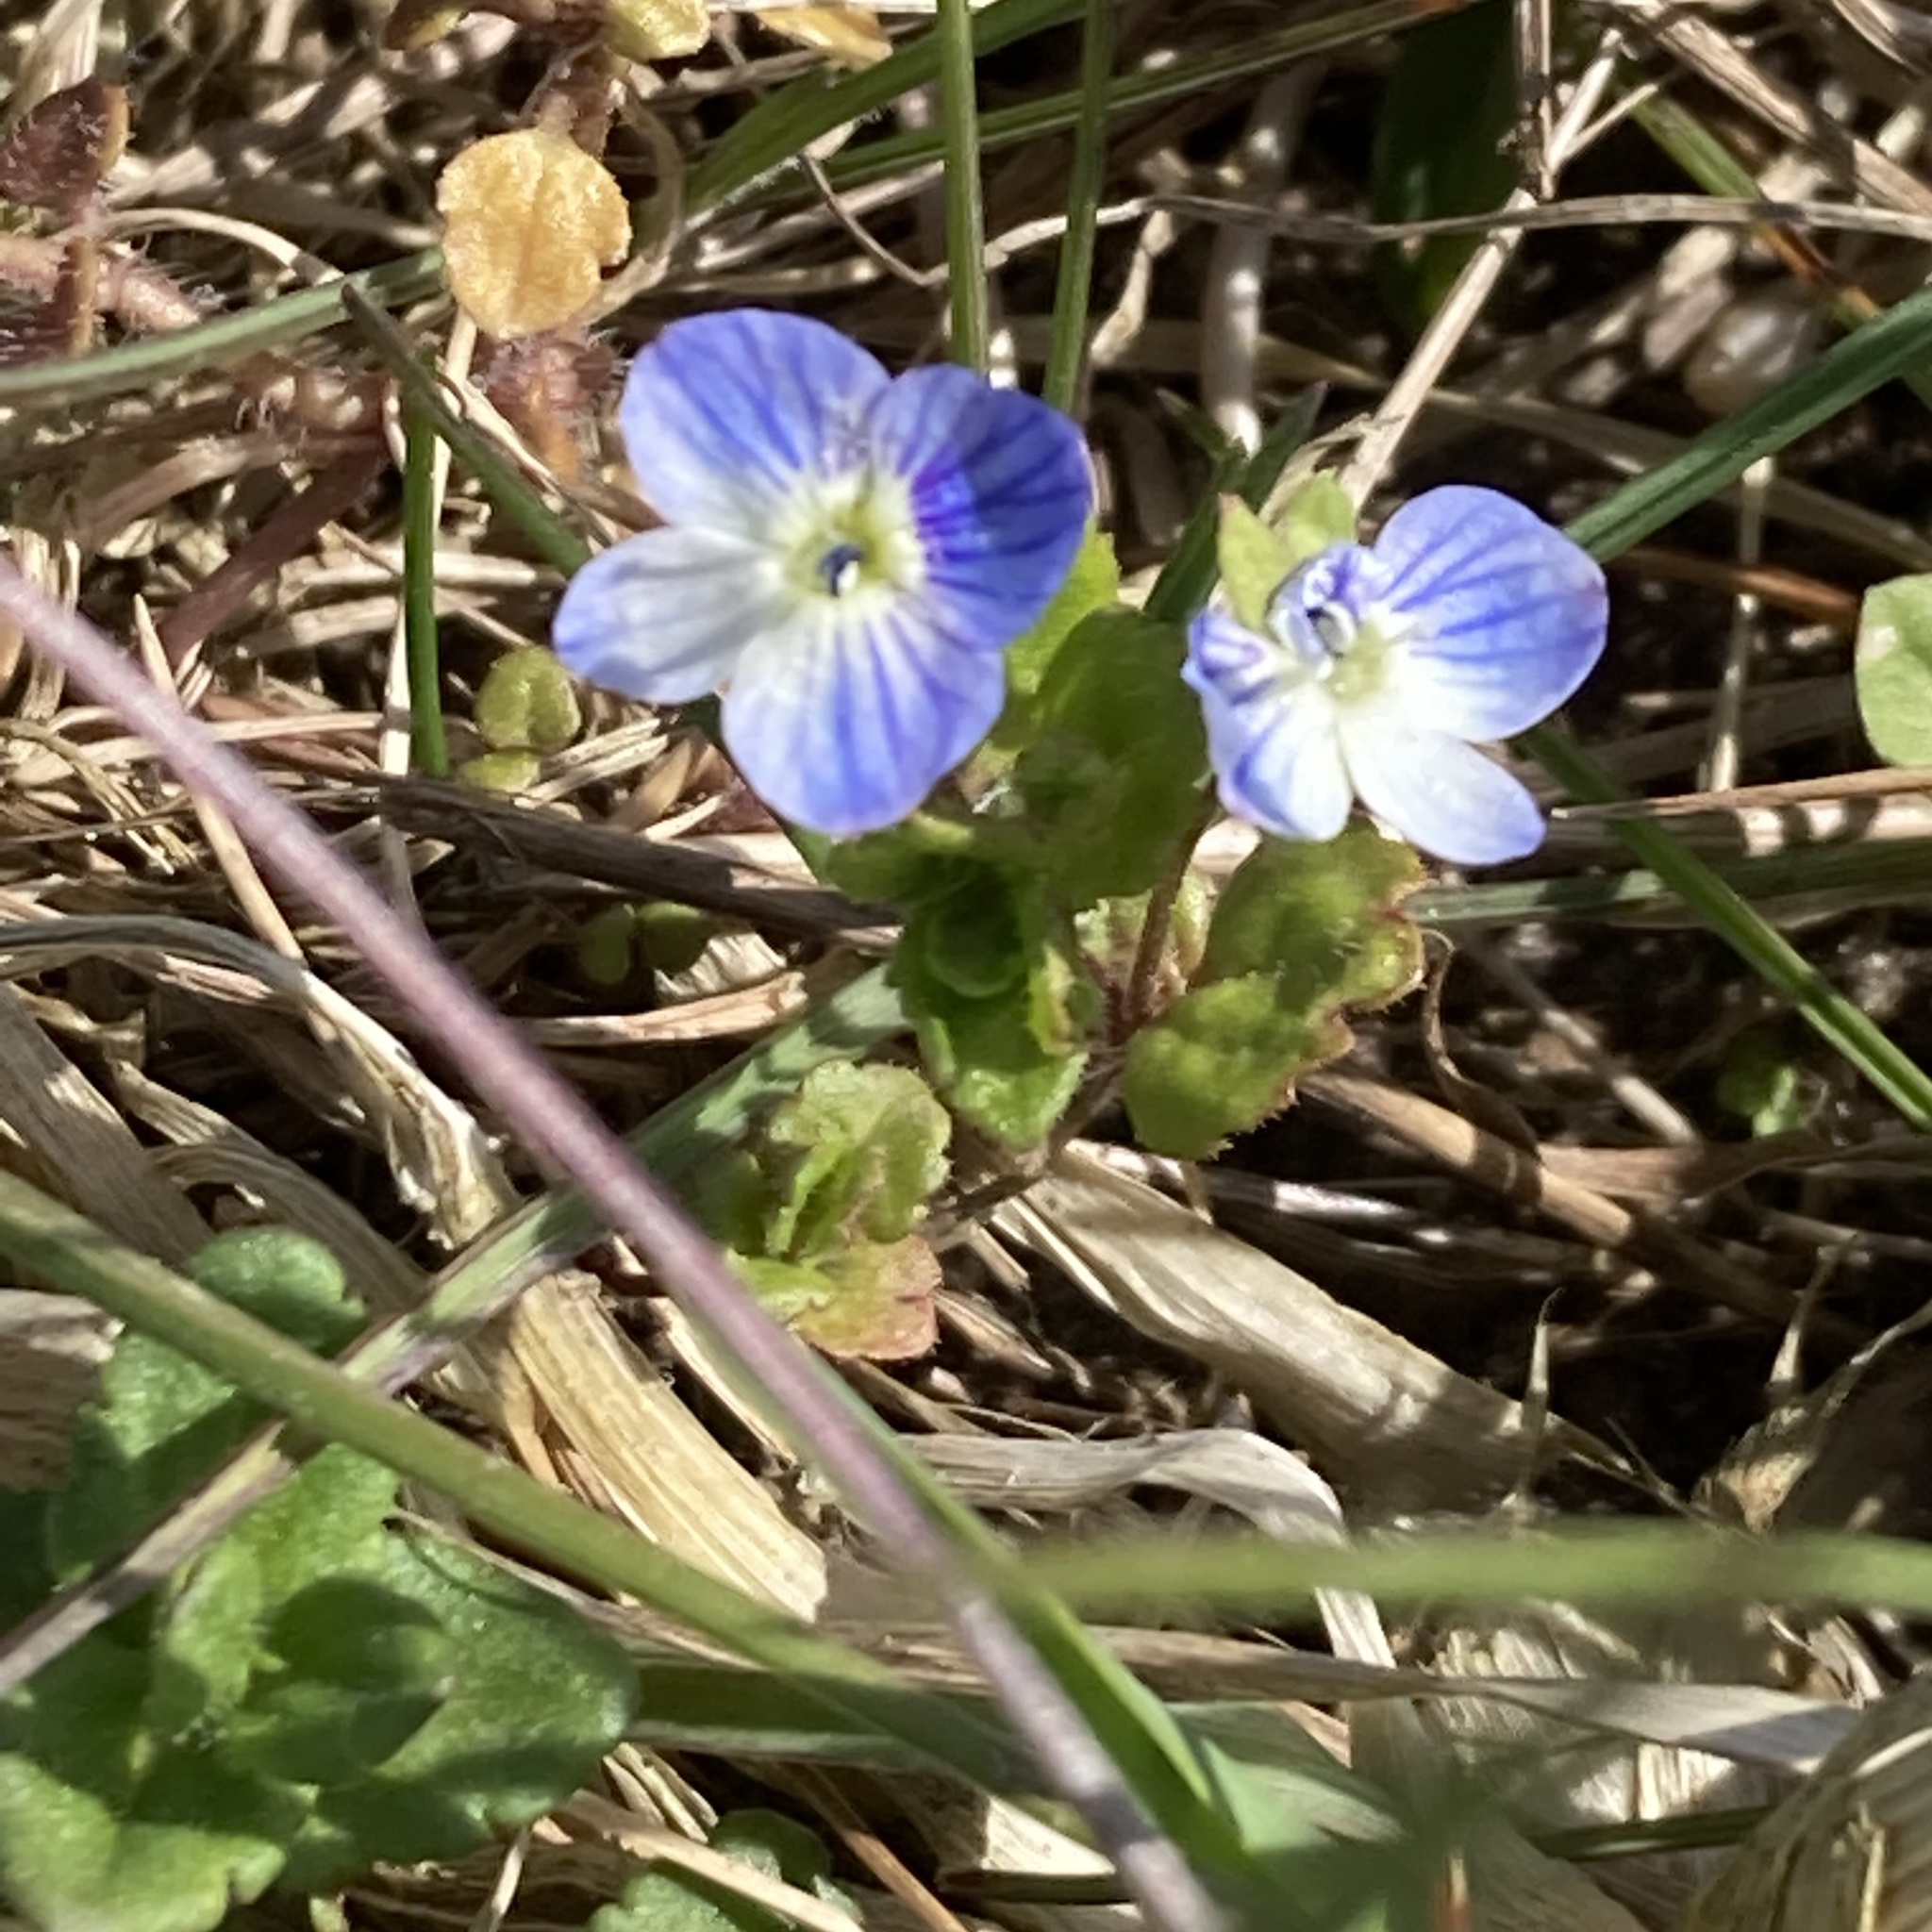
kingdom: Plantae
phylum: Tracheophyta
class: Magnoliopsida
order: Lamiales
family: Plantaginaceae
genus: Veronica
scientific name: Veronica persica
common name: Common field-speedwell
